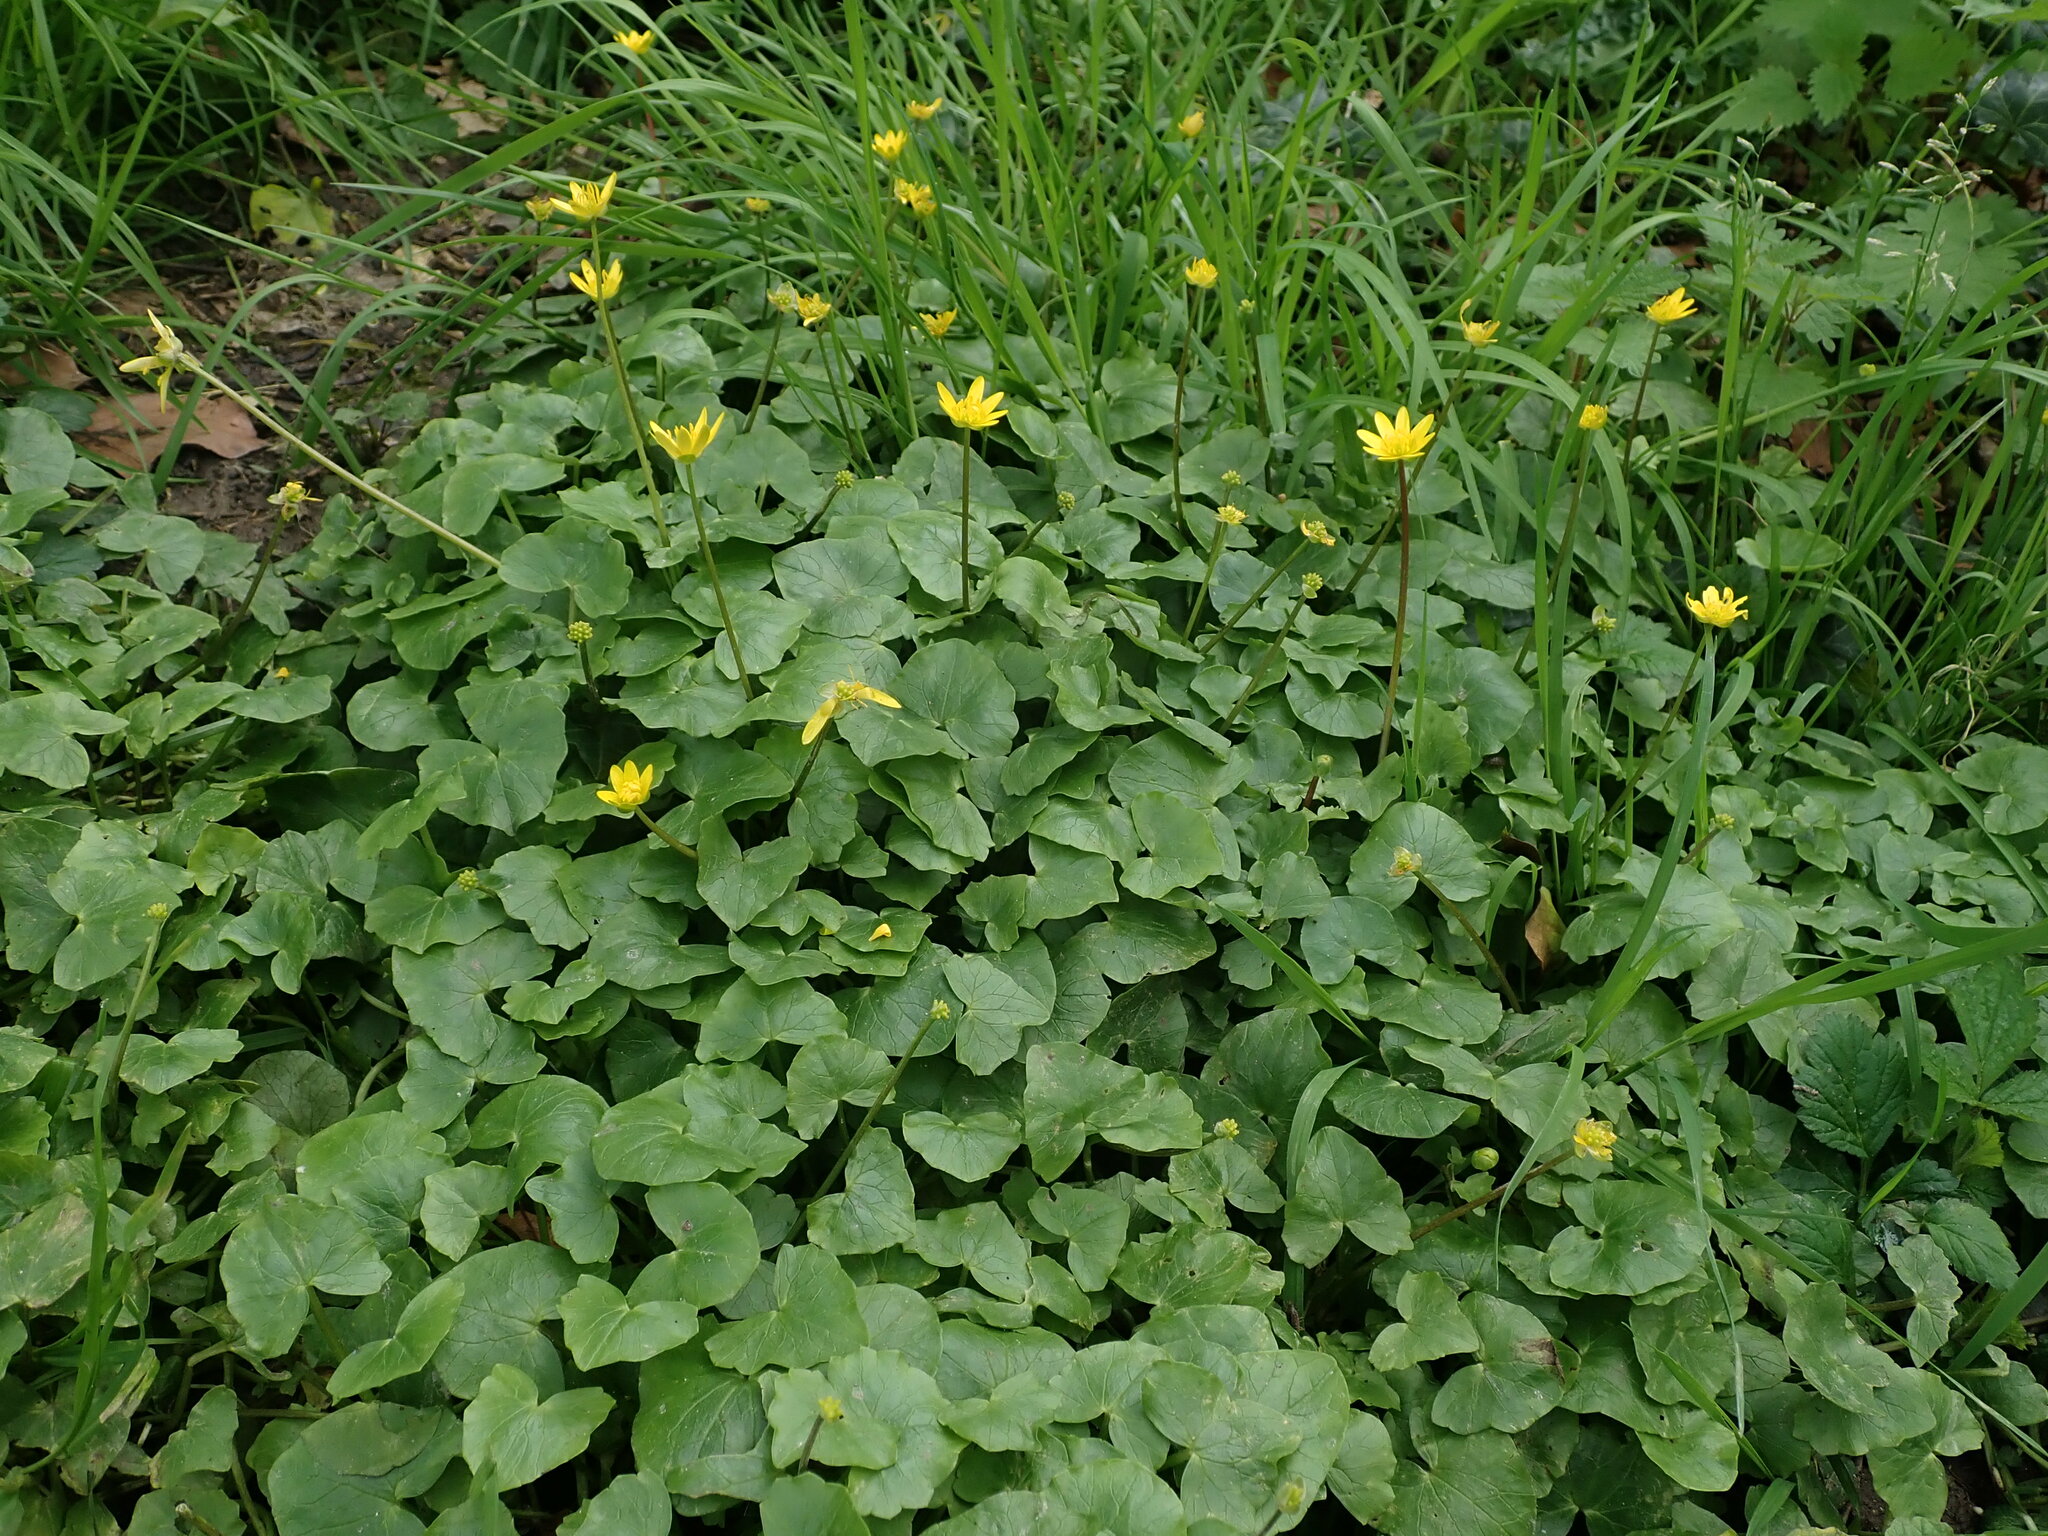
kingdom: Plantae
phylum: Tracheophyta
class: Magnoliopsida
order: Ranunculales
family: Ranunculaceae
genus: Ficaria
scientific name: Ficaria verna
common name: Lesser celandine
